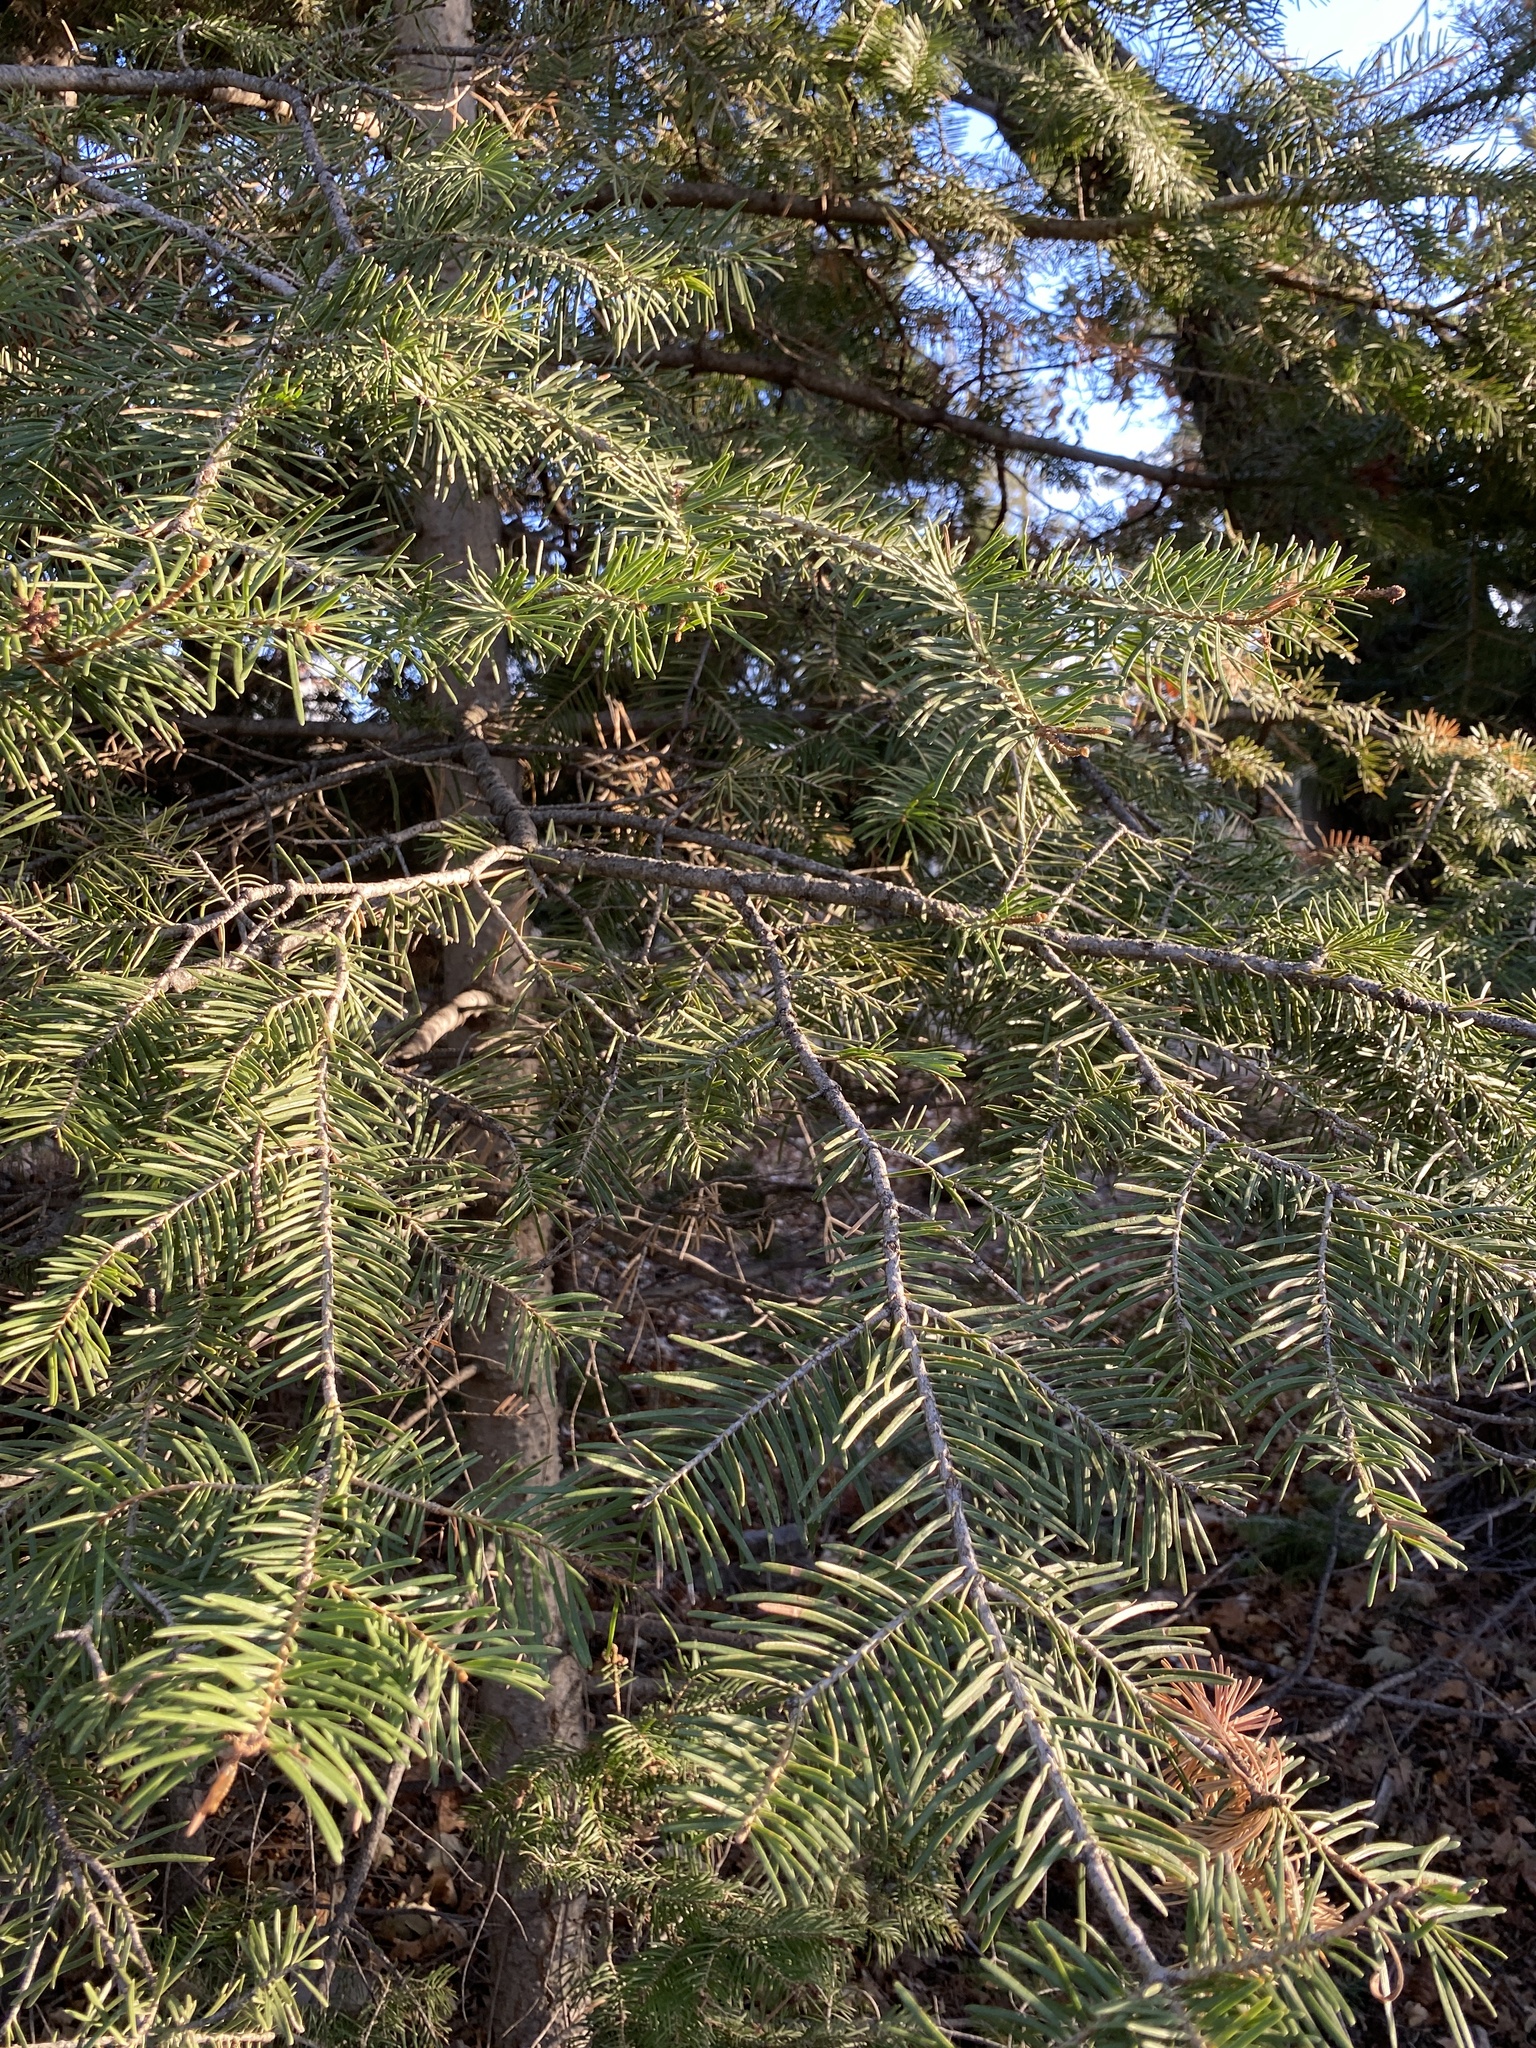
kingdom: Plantae
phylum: Tracheophyta
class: Pinopsida
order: Pinales
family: Pinaceae
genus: Abies
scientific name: Abies concolor
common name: Colorado fir
